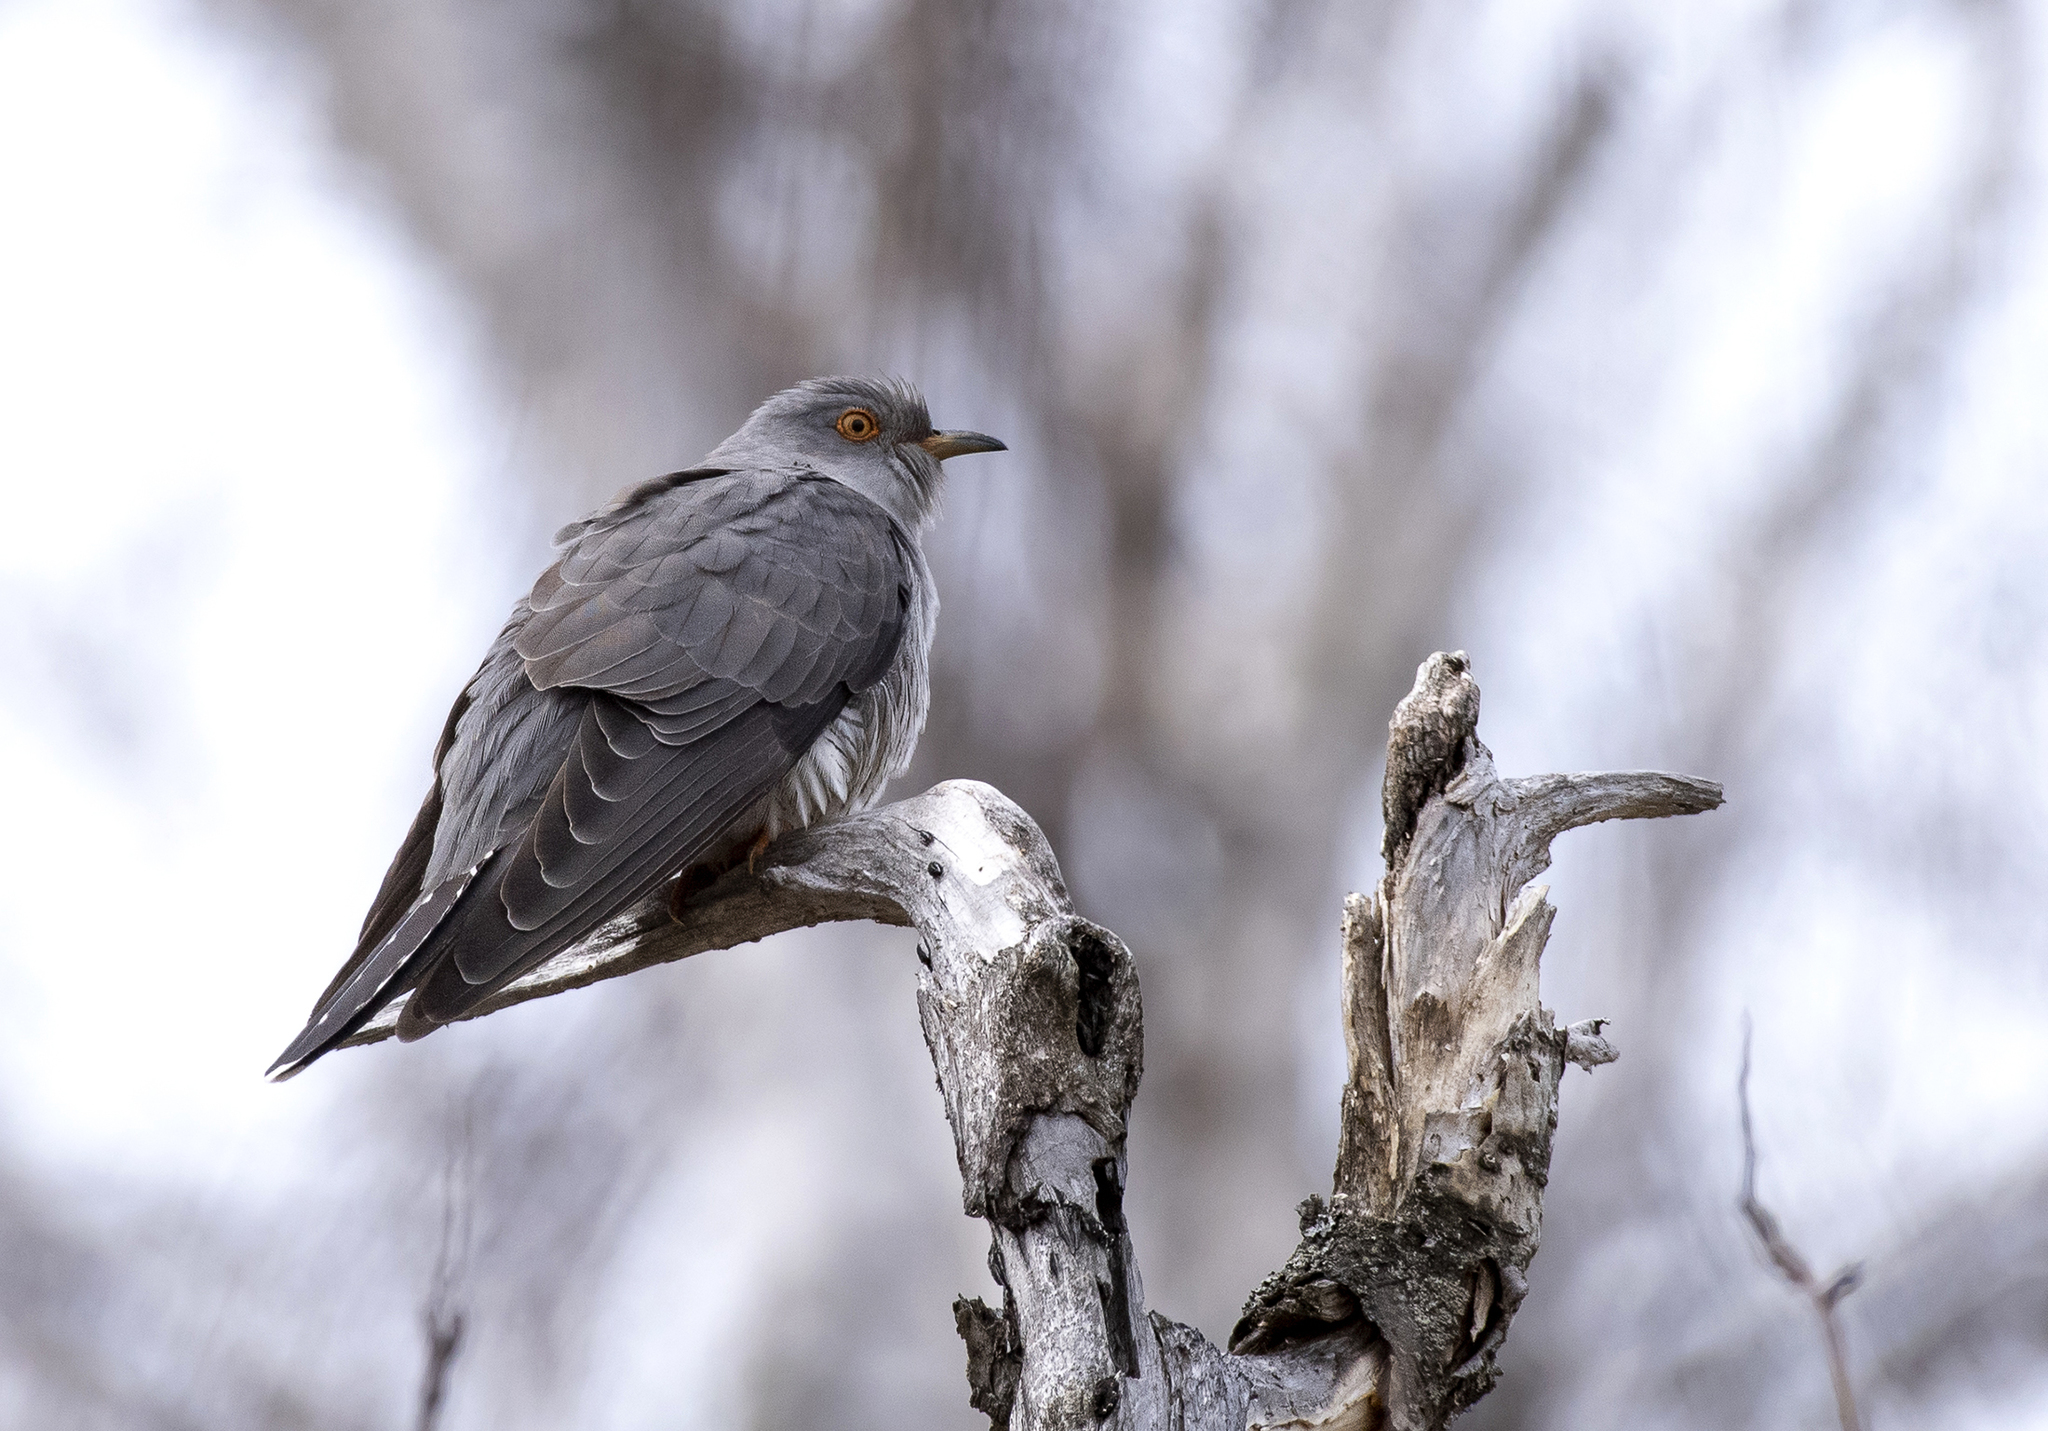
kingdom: Animalia
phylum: Chordata
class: Aves
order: Cuculiformes
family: Cuculidae
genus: Cuculus
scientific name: Cuculus canorus
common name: Common cuckoo
